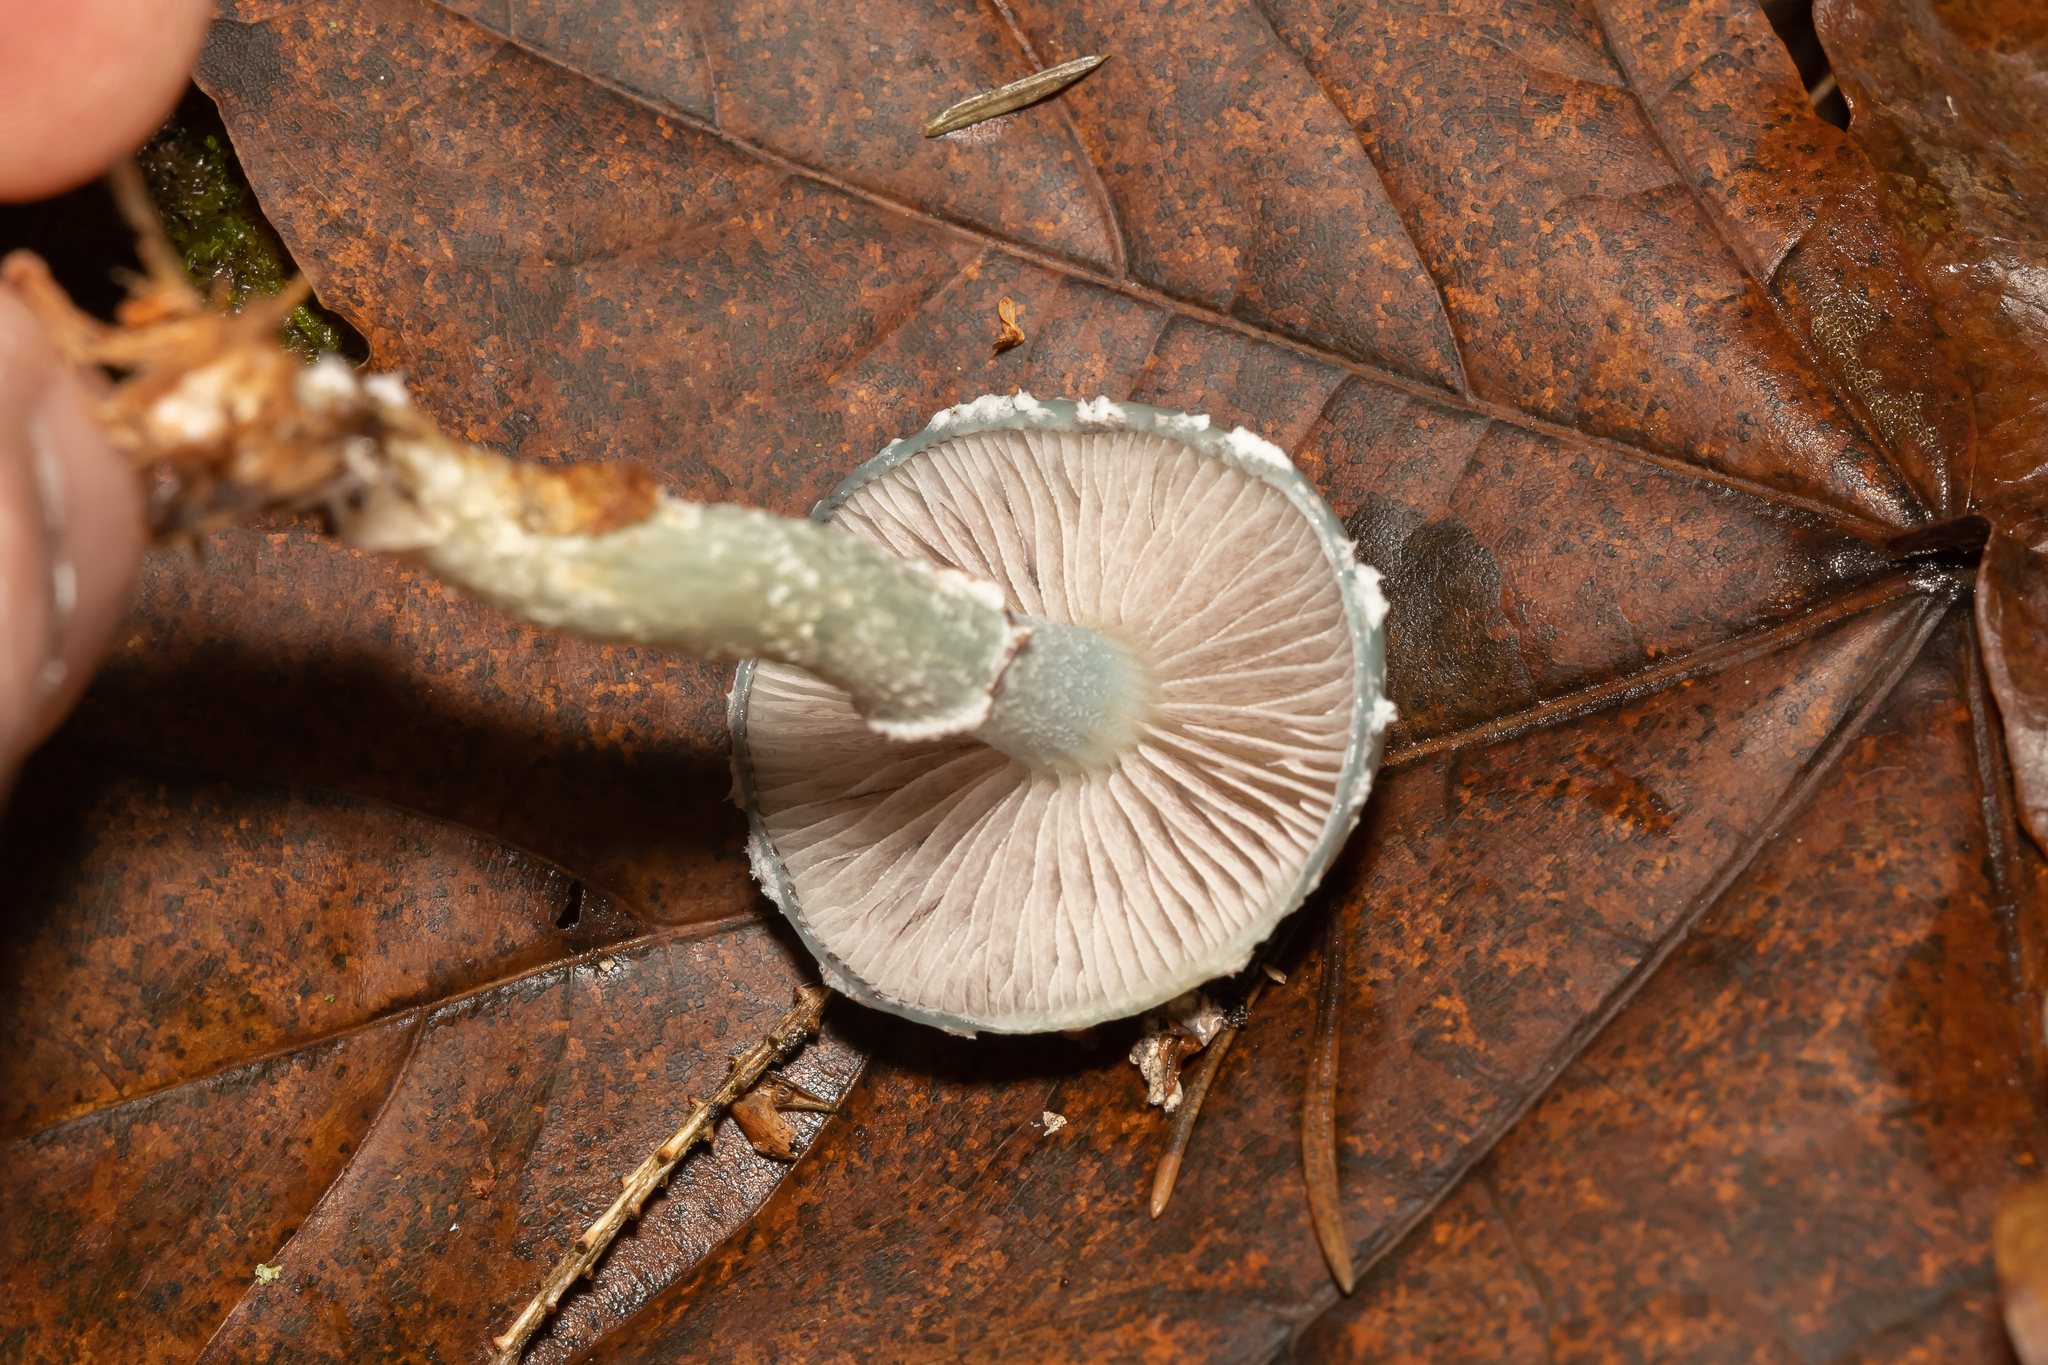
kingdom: Fungi
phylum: Basidiomycota
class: Agaricomycetes
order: Agaricales
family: Strophariaceae
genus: Stropharia
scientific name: Stropharia aeruginosa
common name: Verdigris roundhead
